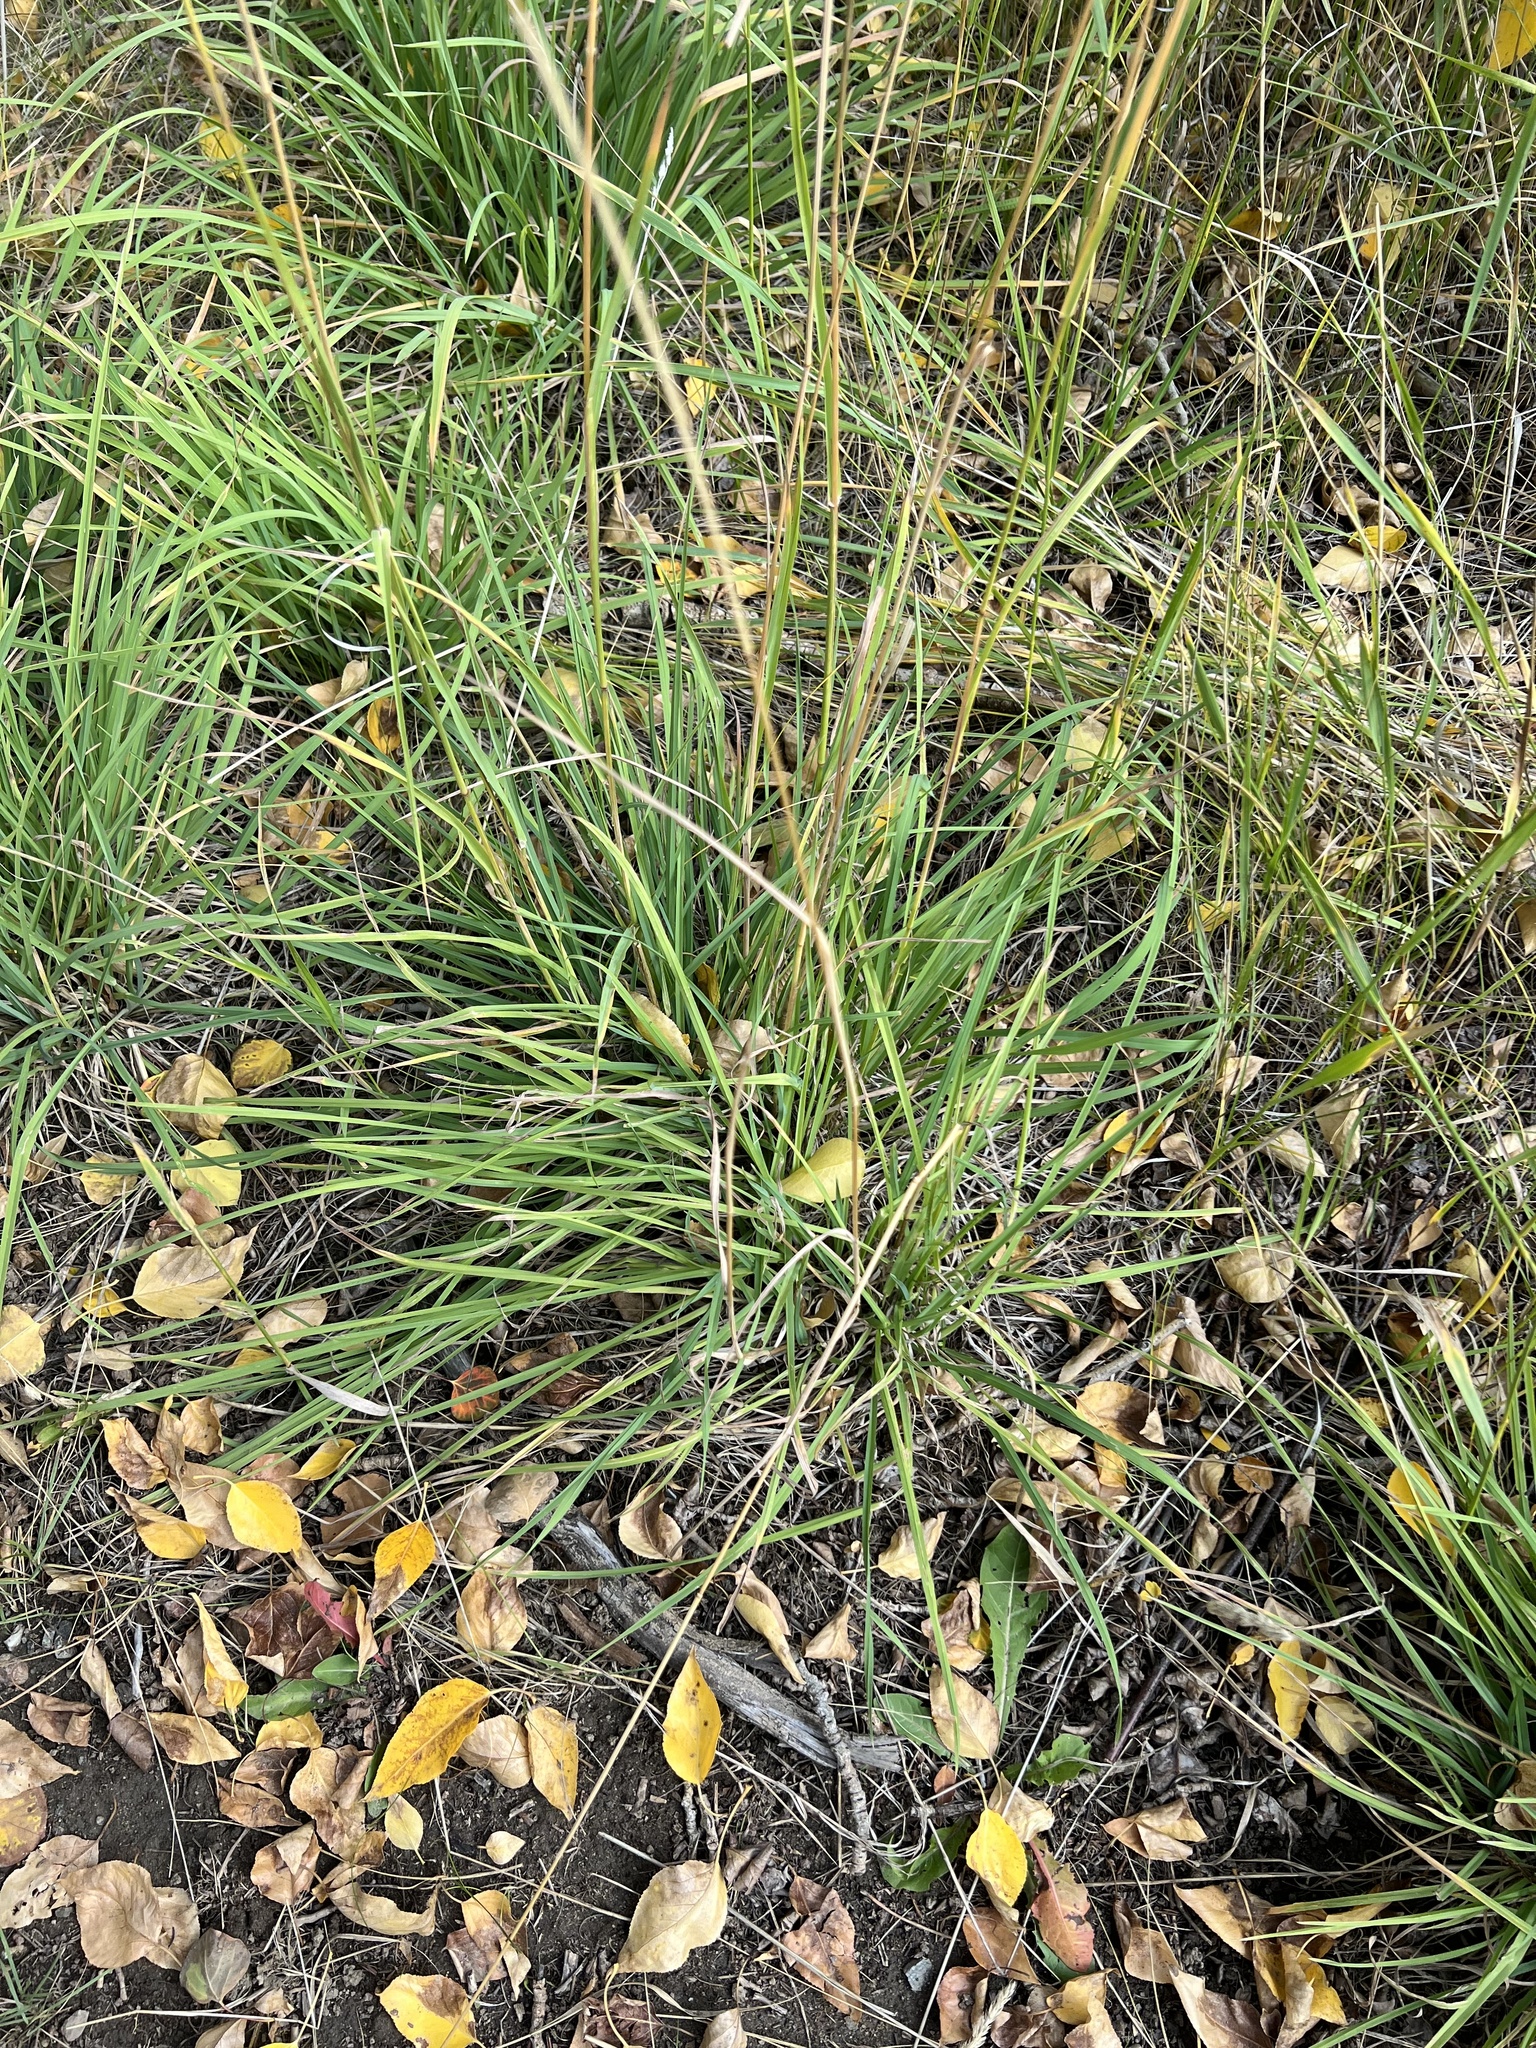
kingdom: Plantae
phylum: Tracheophyta
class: Liliopsida
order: Poales
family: Poaceae
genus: Dactylis
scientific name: Dactylis glomerata
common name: Orchardgrass
